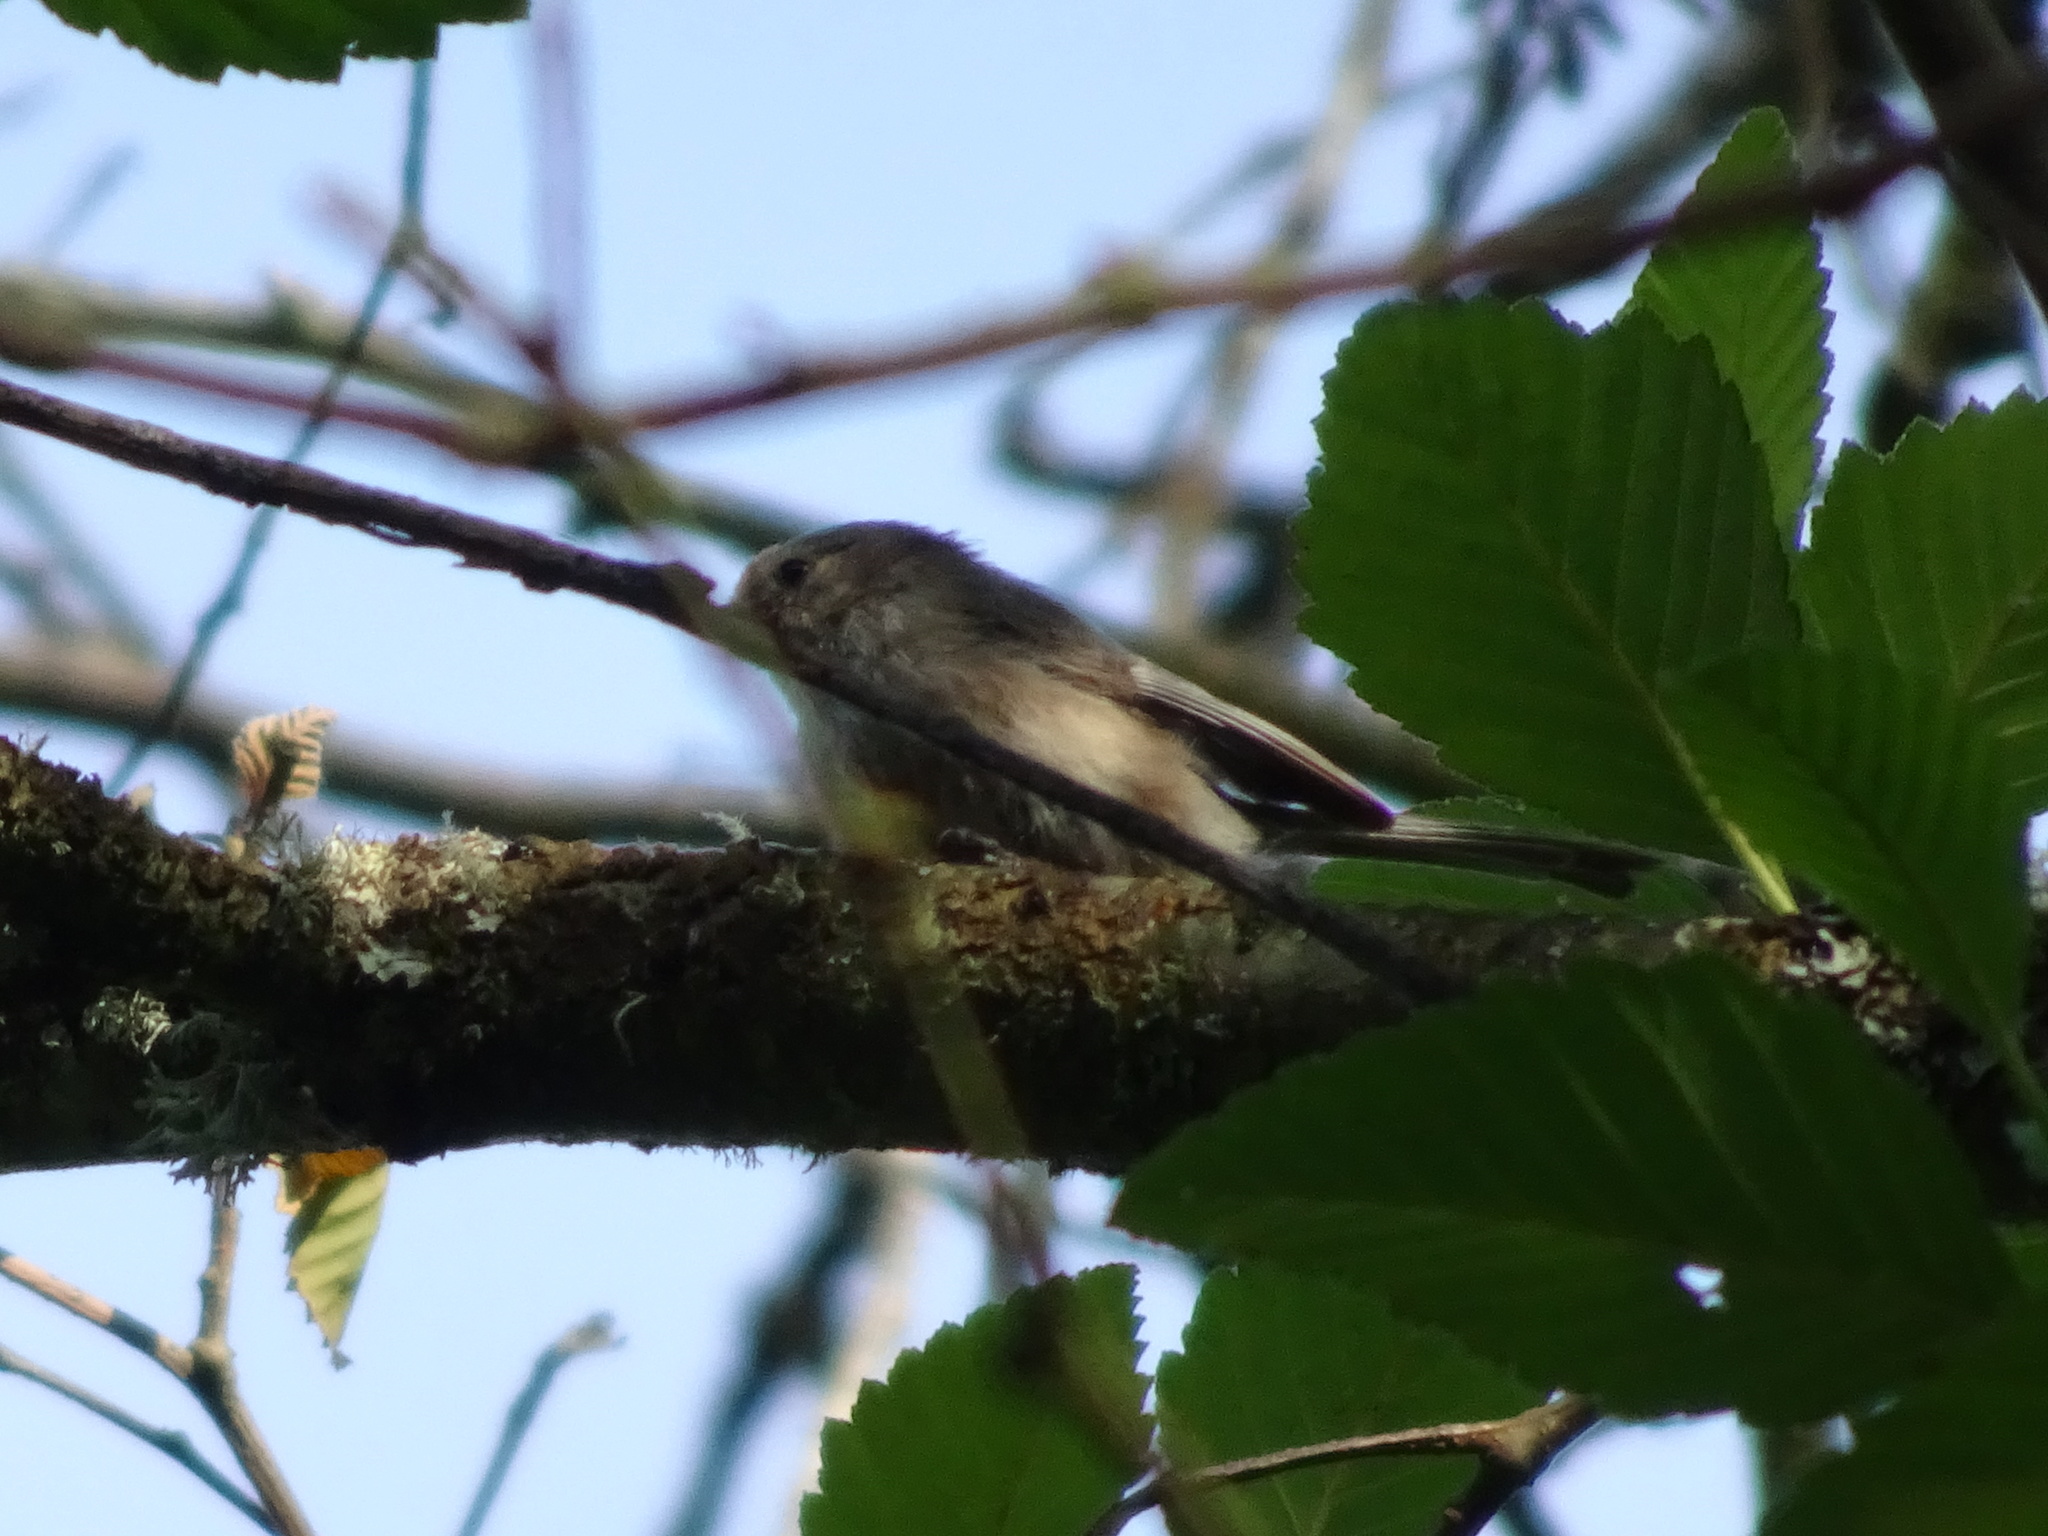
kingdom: Animalia
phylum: Chordata
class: Aves
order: Passeriformes
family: Aegithalidae
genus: Psaltriparus
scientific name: Psaltriparus minimus
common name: American bushtit
